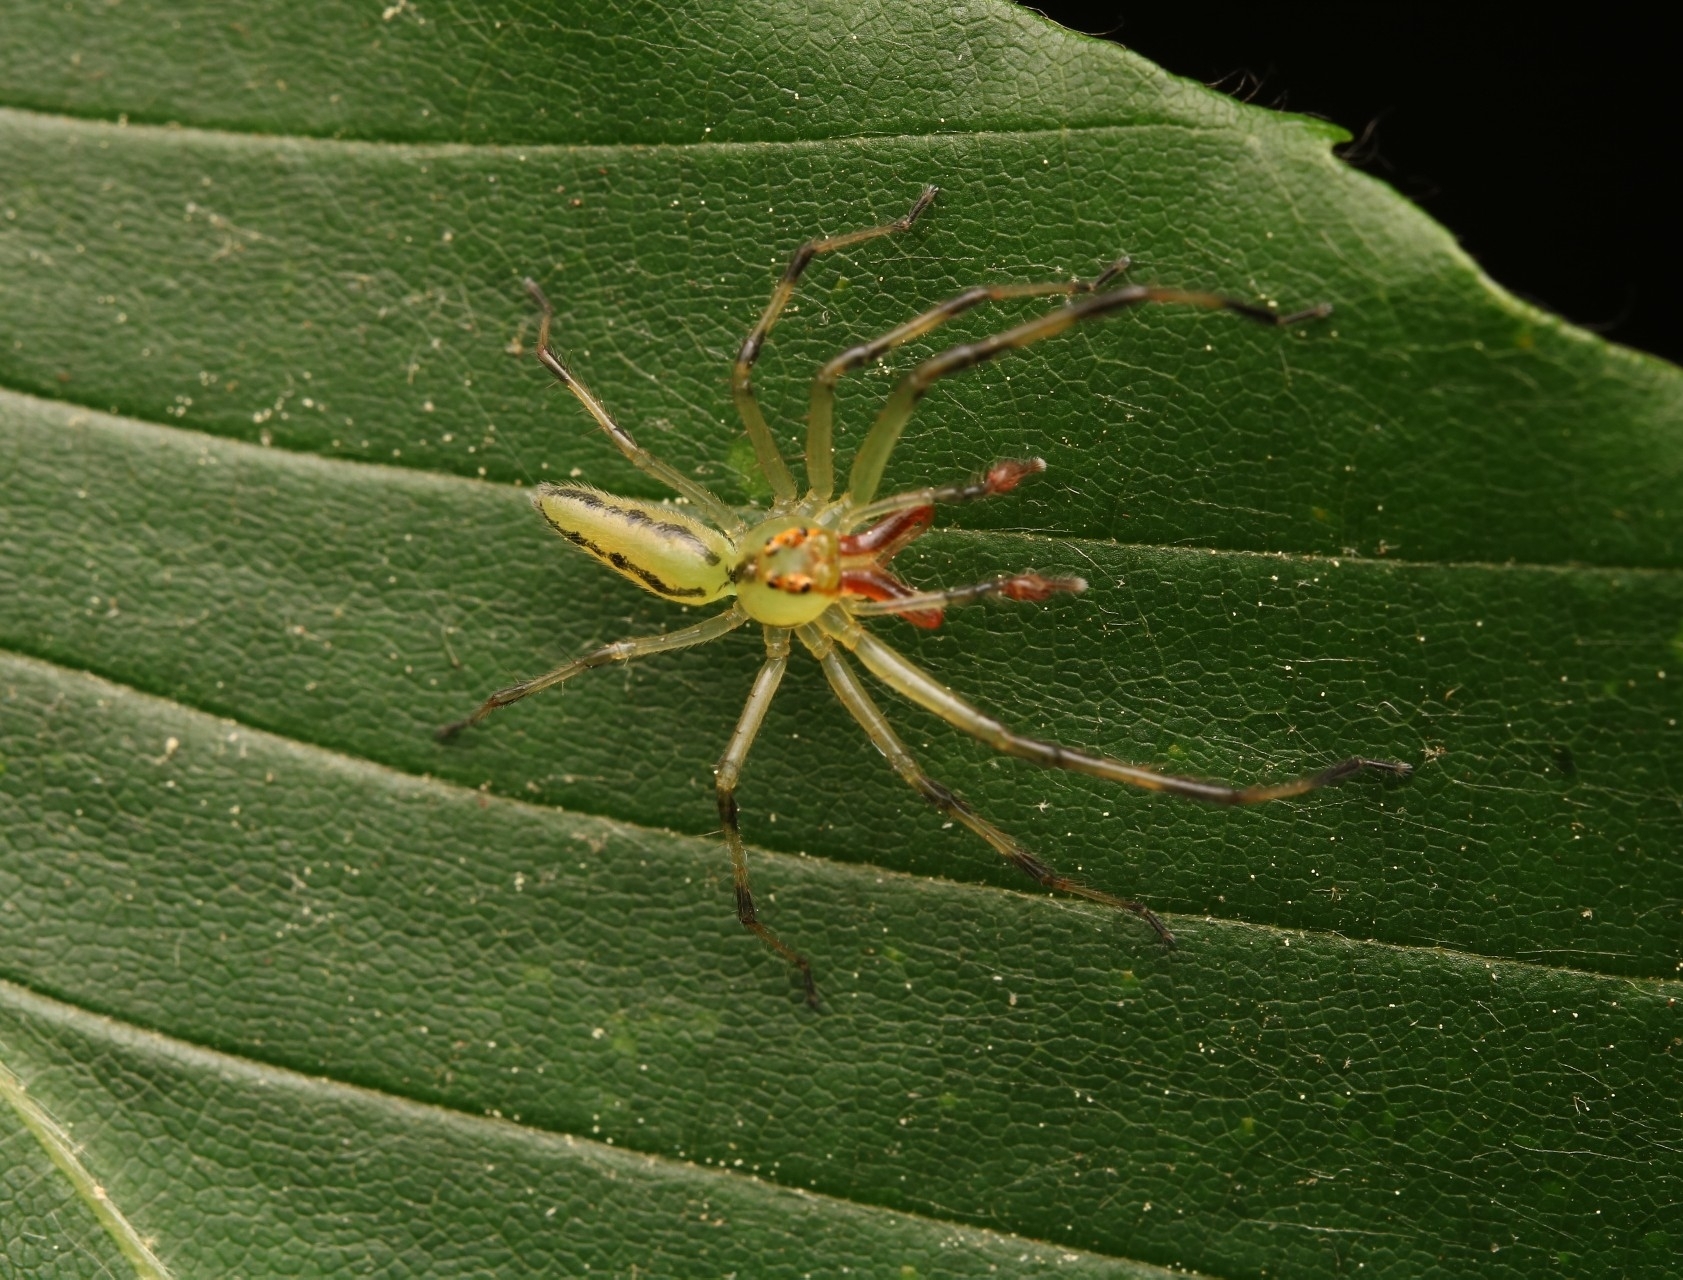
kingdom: Animalia
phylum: Arthropoda
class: Arachnida
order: Araneae
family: Salticidae
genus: Lyssomanes
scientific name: Lyssomanes viridis
